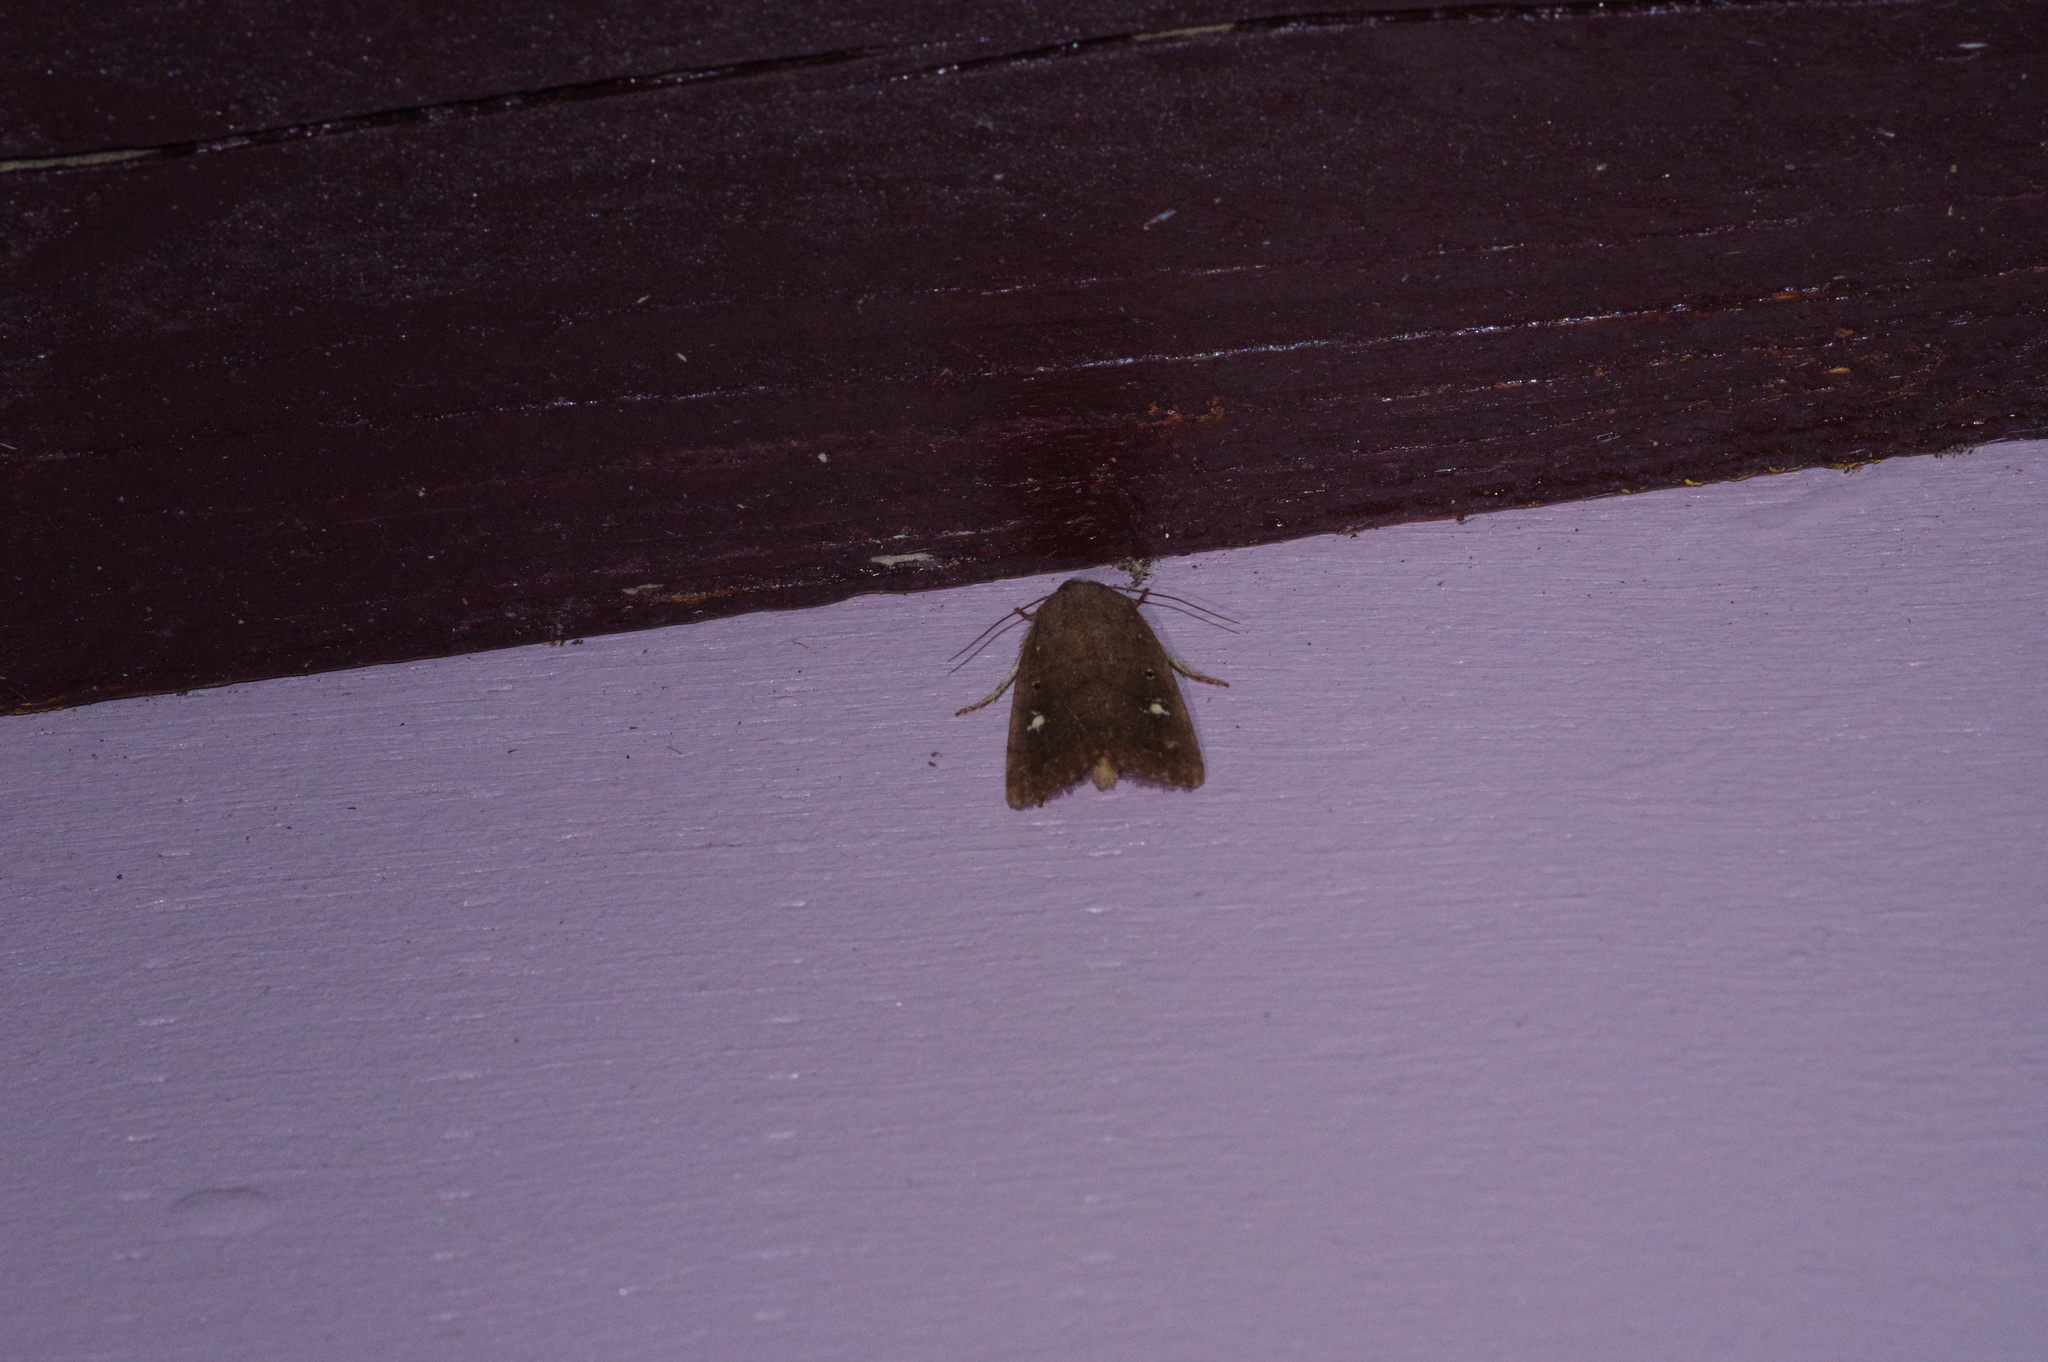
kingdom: Animalia
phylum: Arthropoda
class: Insecta
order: Lepidoptera
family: Noctuidae
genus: Athetis
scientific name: Athetis lineosella
